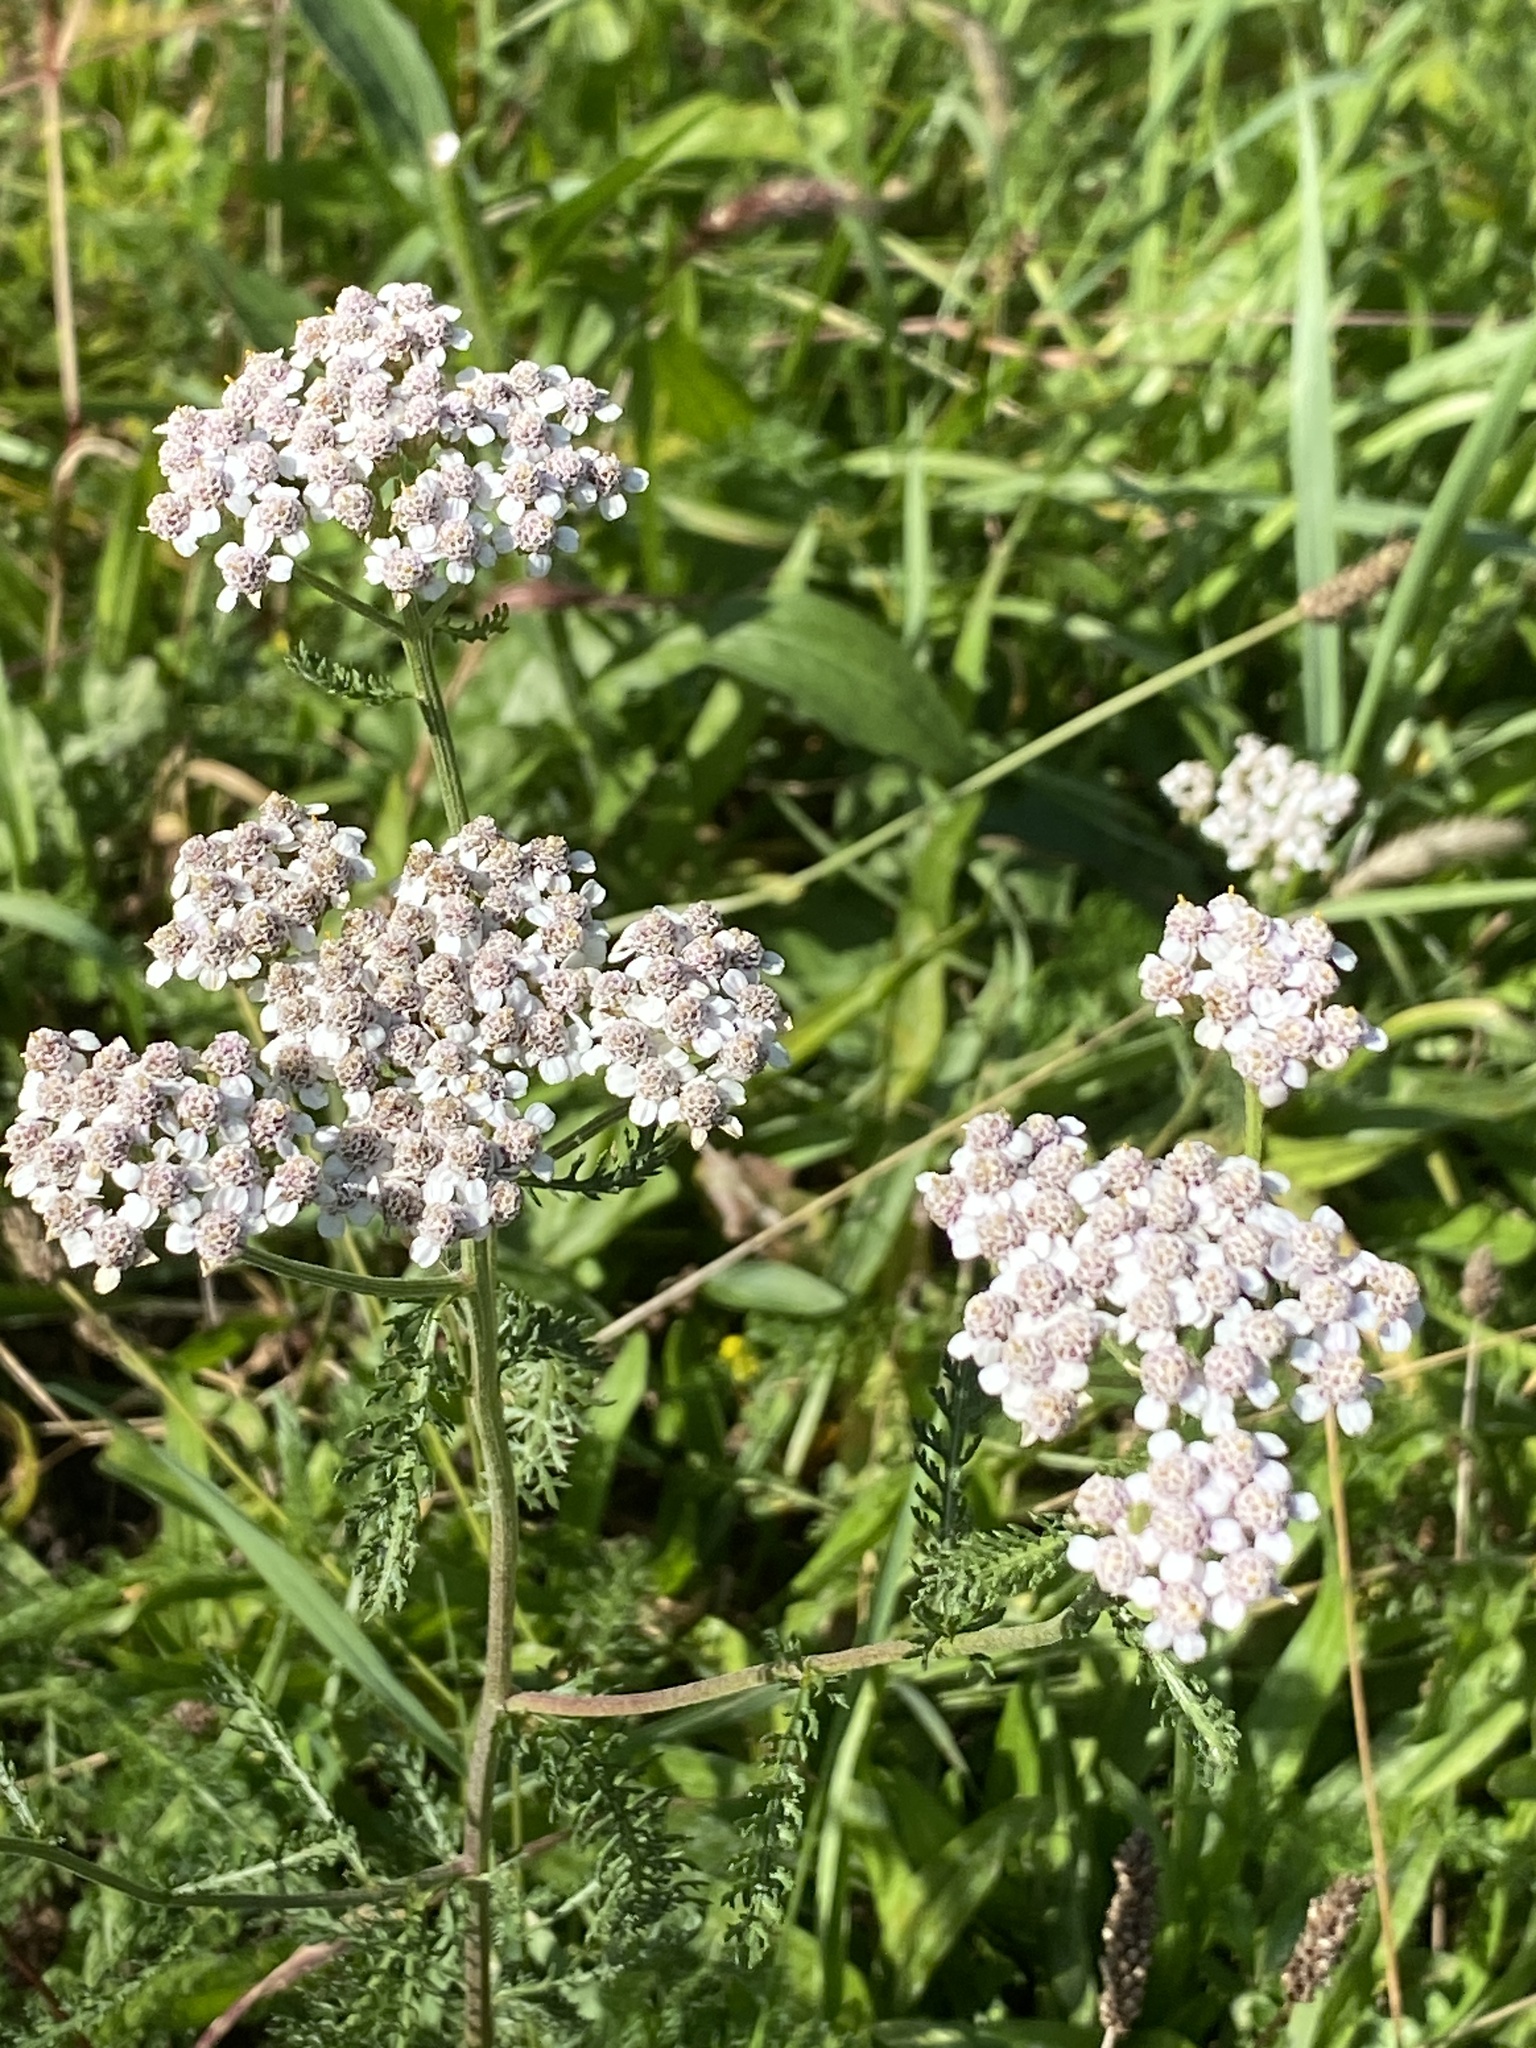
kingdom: Plantae
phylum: Tracheophyta
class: Magnoliopsida
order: Asterales
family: Asteraceae
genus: Achillea
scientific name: Achillea millefolium
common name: Yarrow
